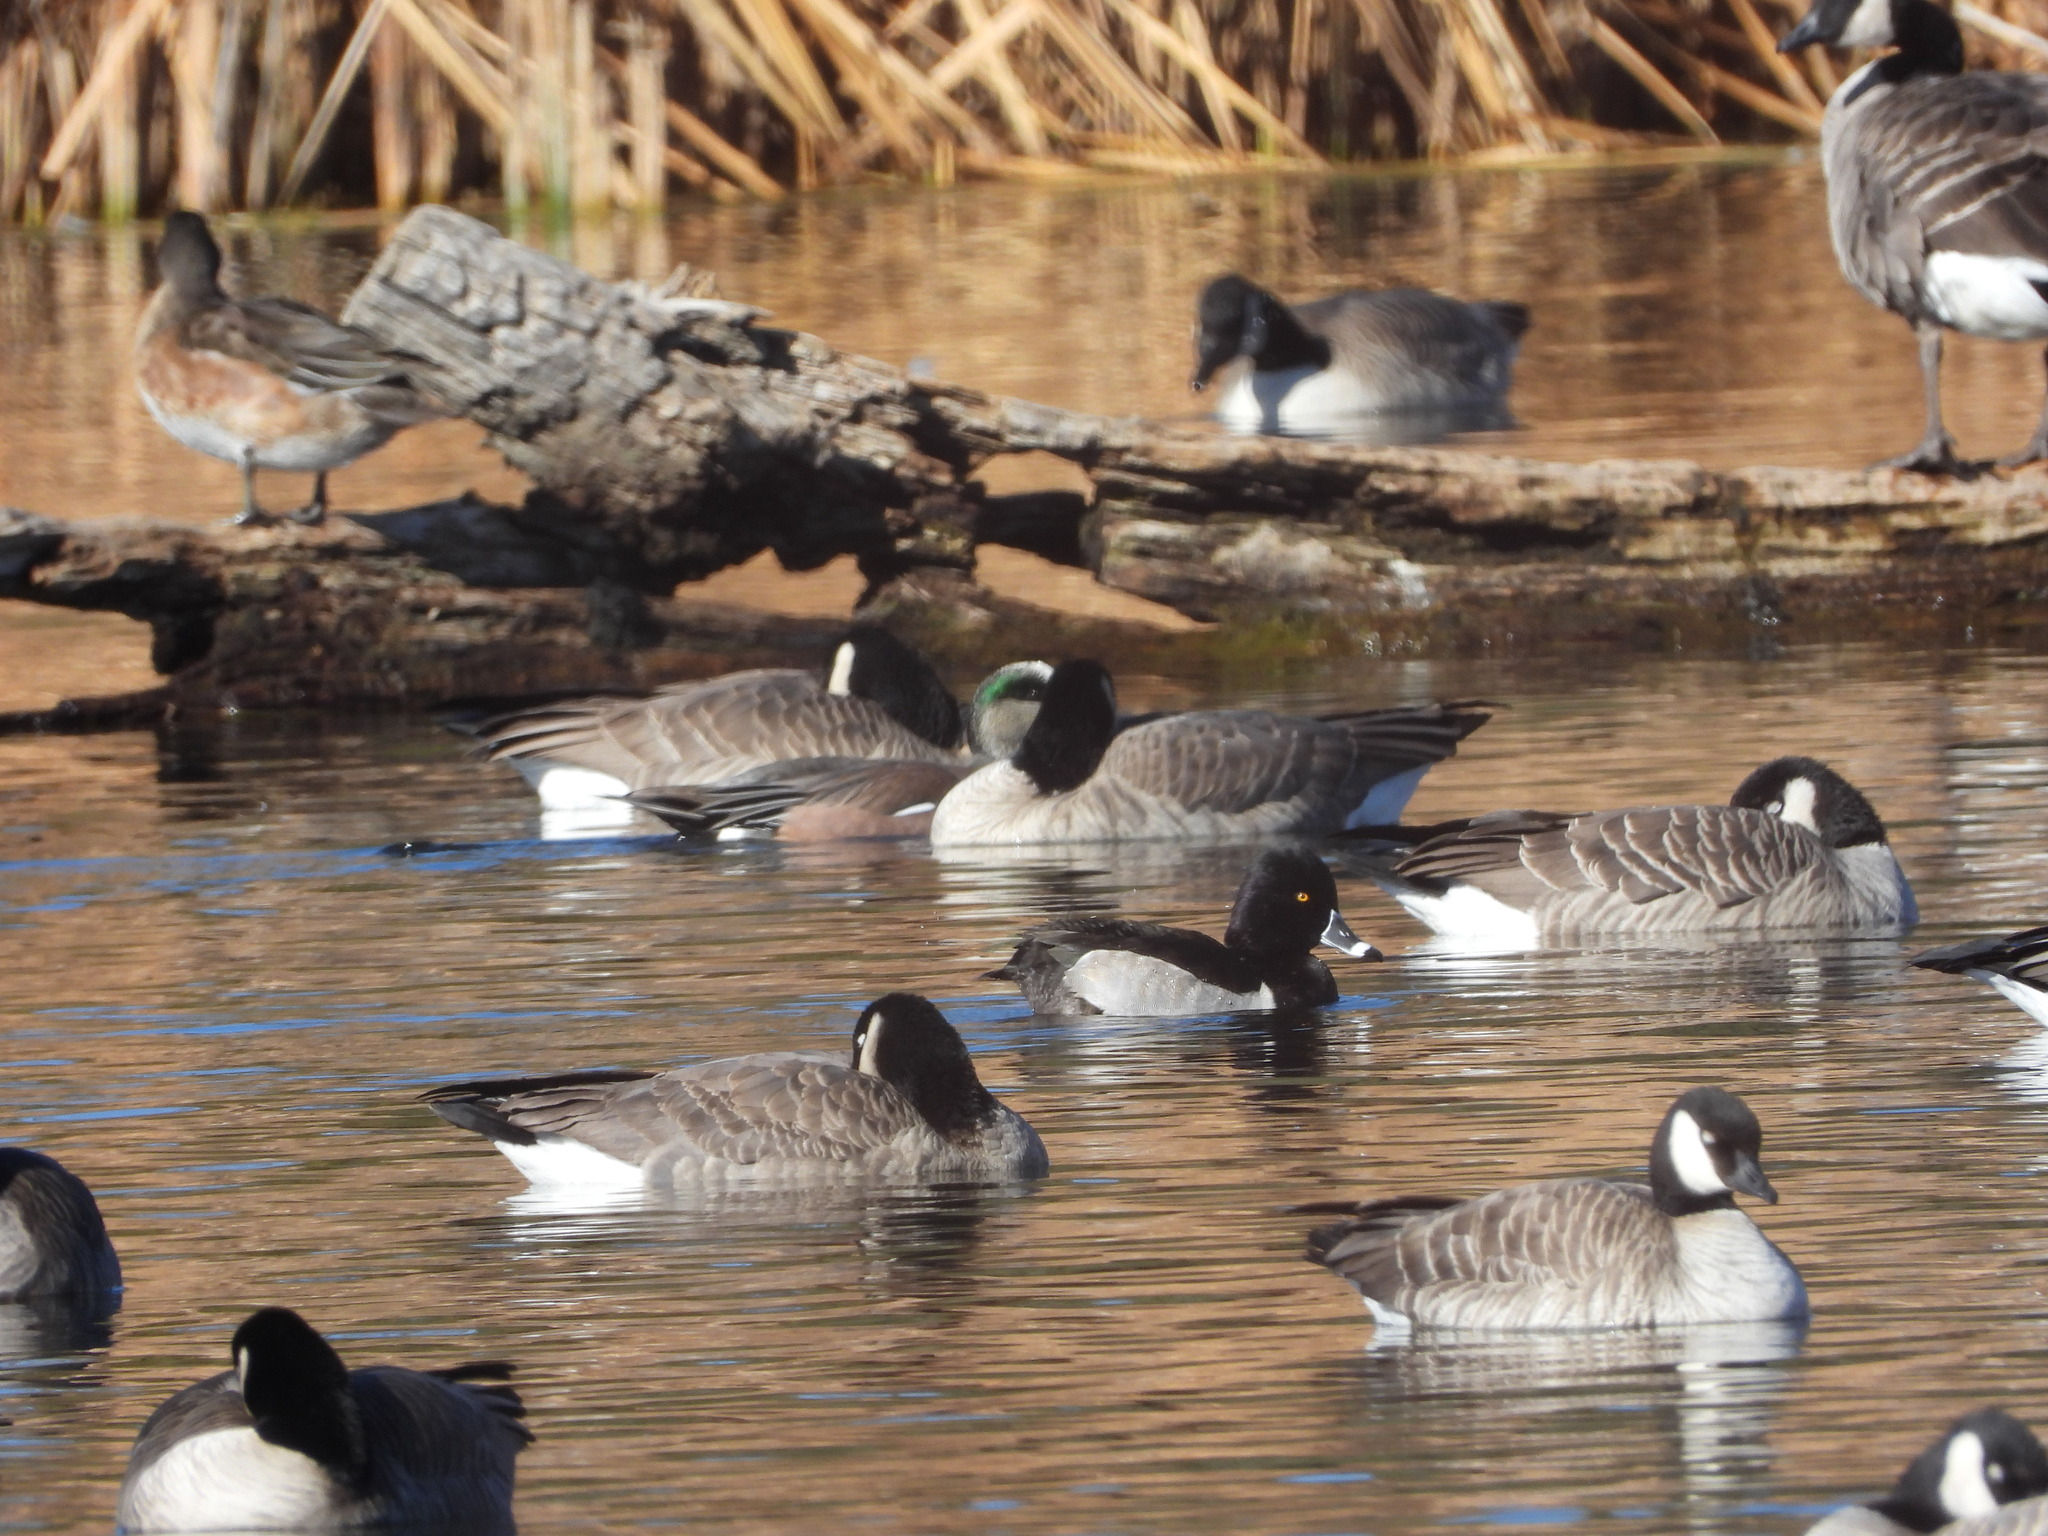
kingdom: Animalia
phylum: Chordata
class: Aves
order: Anseriformes
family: Anatidae
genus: Aythya
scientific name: Aythya collaris
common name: Ring-necked duck
